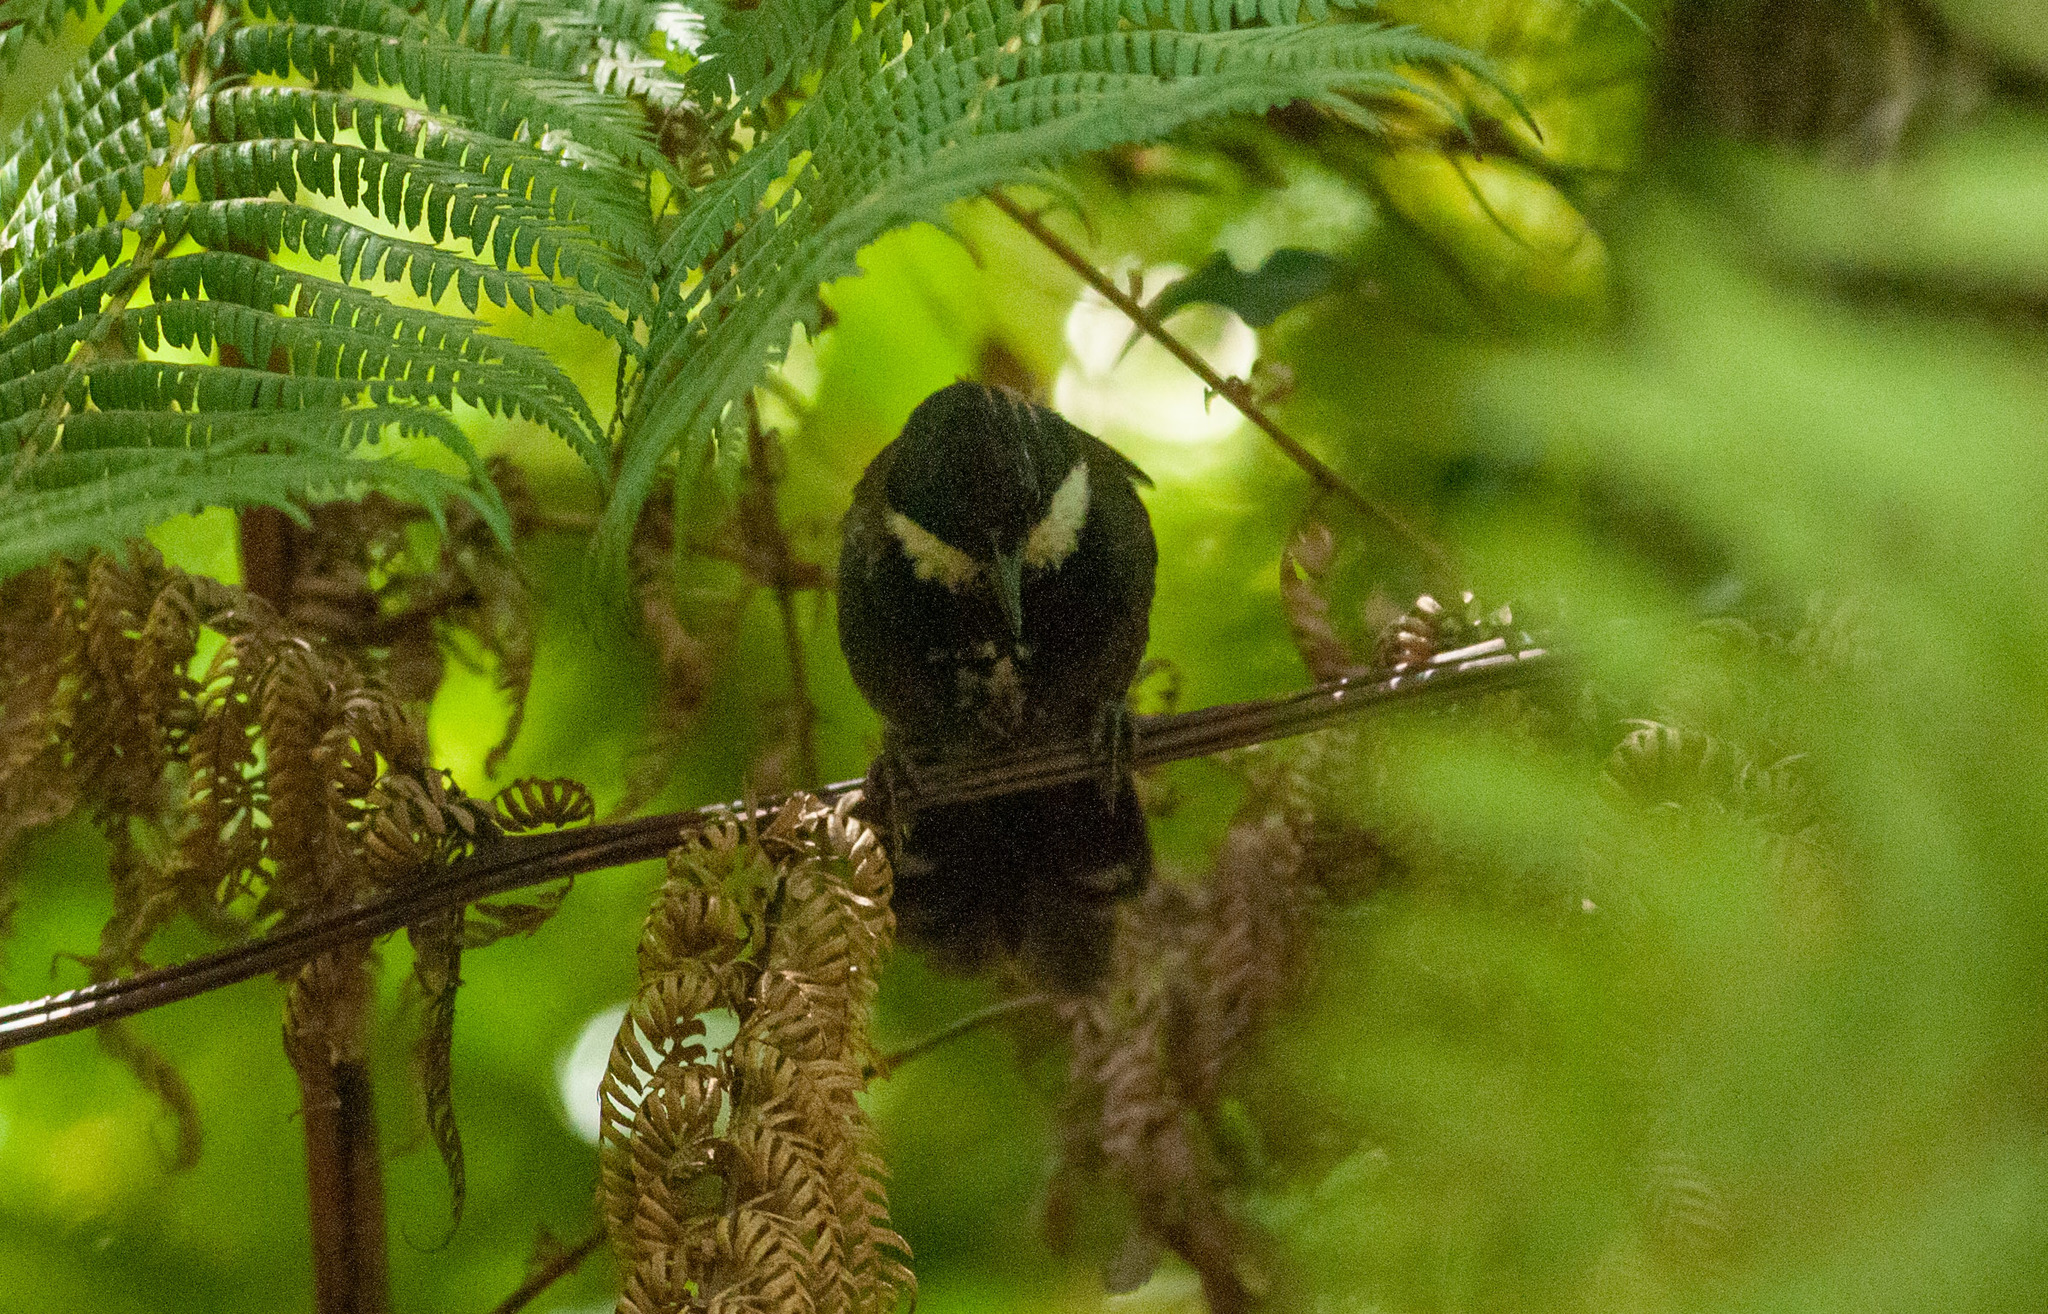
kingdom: Animalia
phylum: Chordata
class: Aves
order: Passeriformes
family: Psophodidae
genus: Psophodes
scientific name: Psophodes olivaceus
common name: Eastern whipbird
